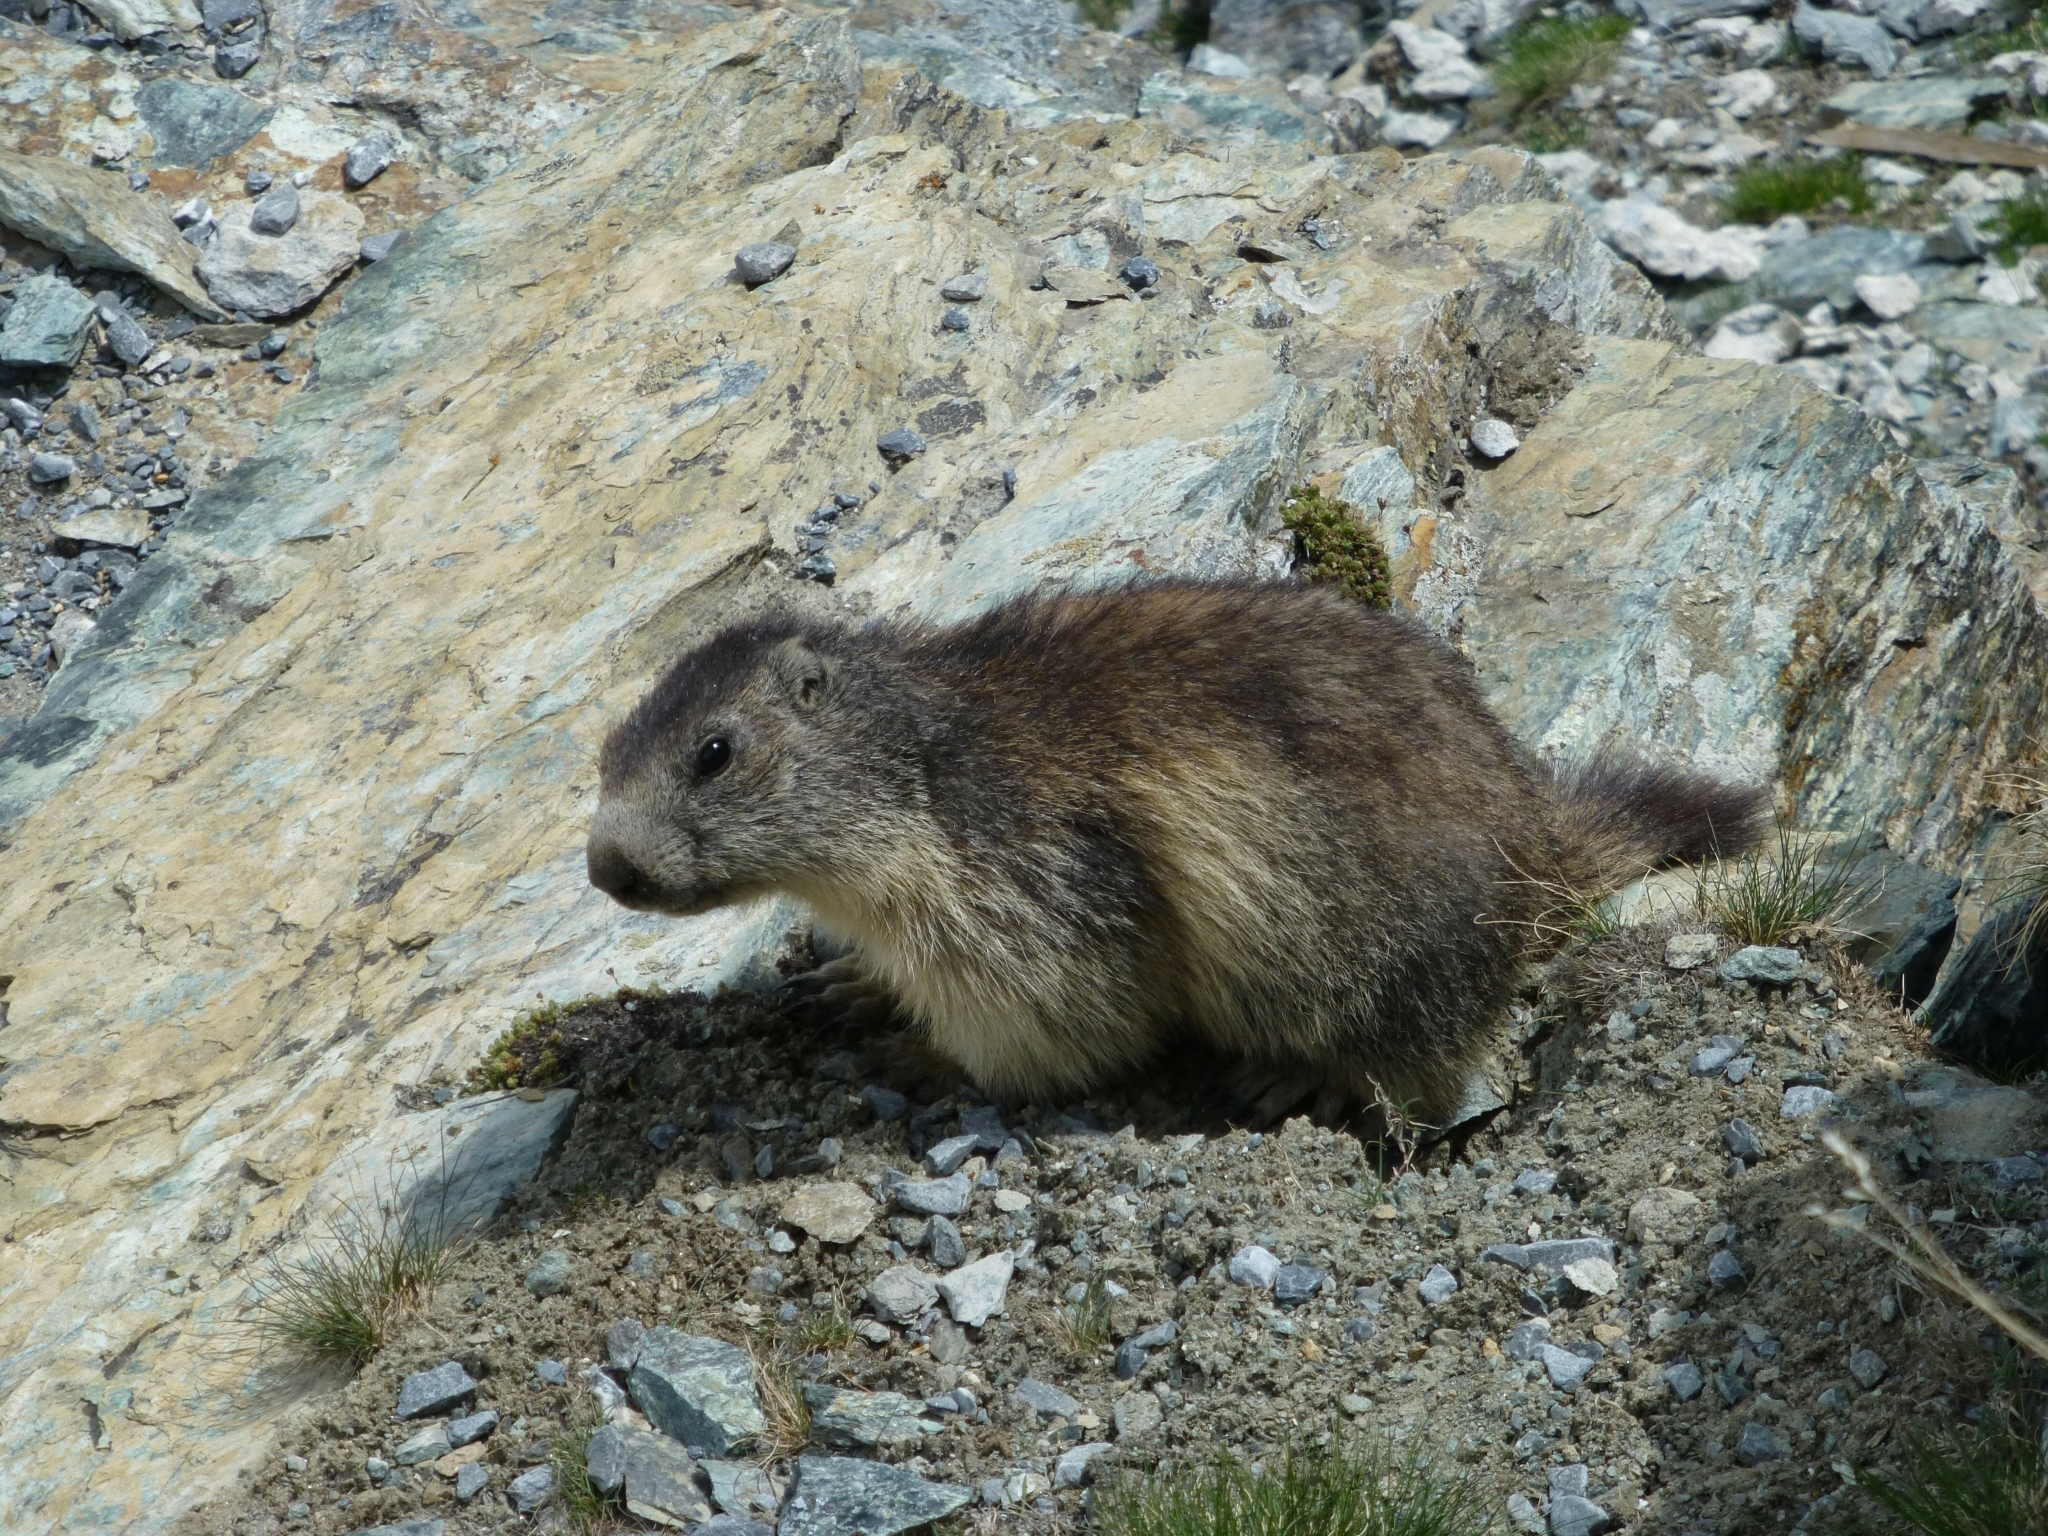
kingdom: Animalia
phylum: Chordata
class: Mammalia
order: Rodentia
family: Sciuridae
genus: Marmota
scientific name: Marmota marmota
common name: Alpine marmot
